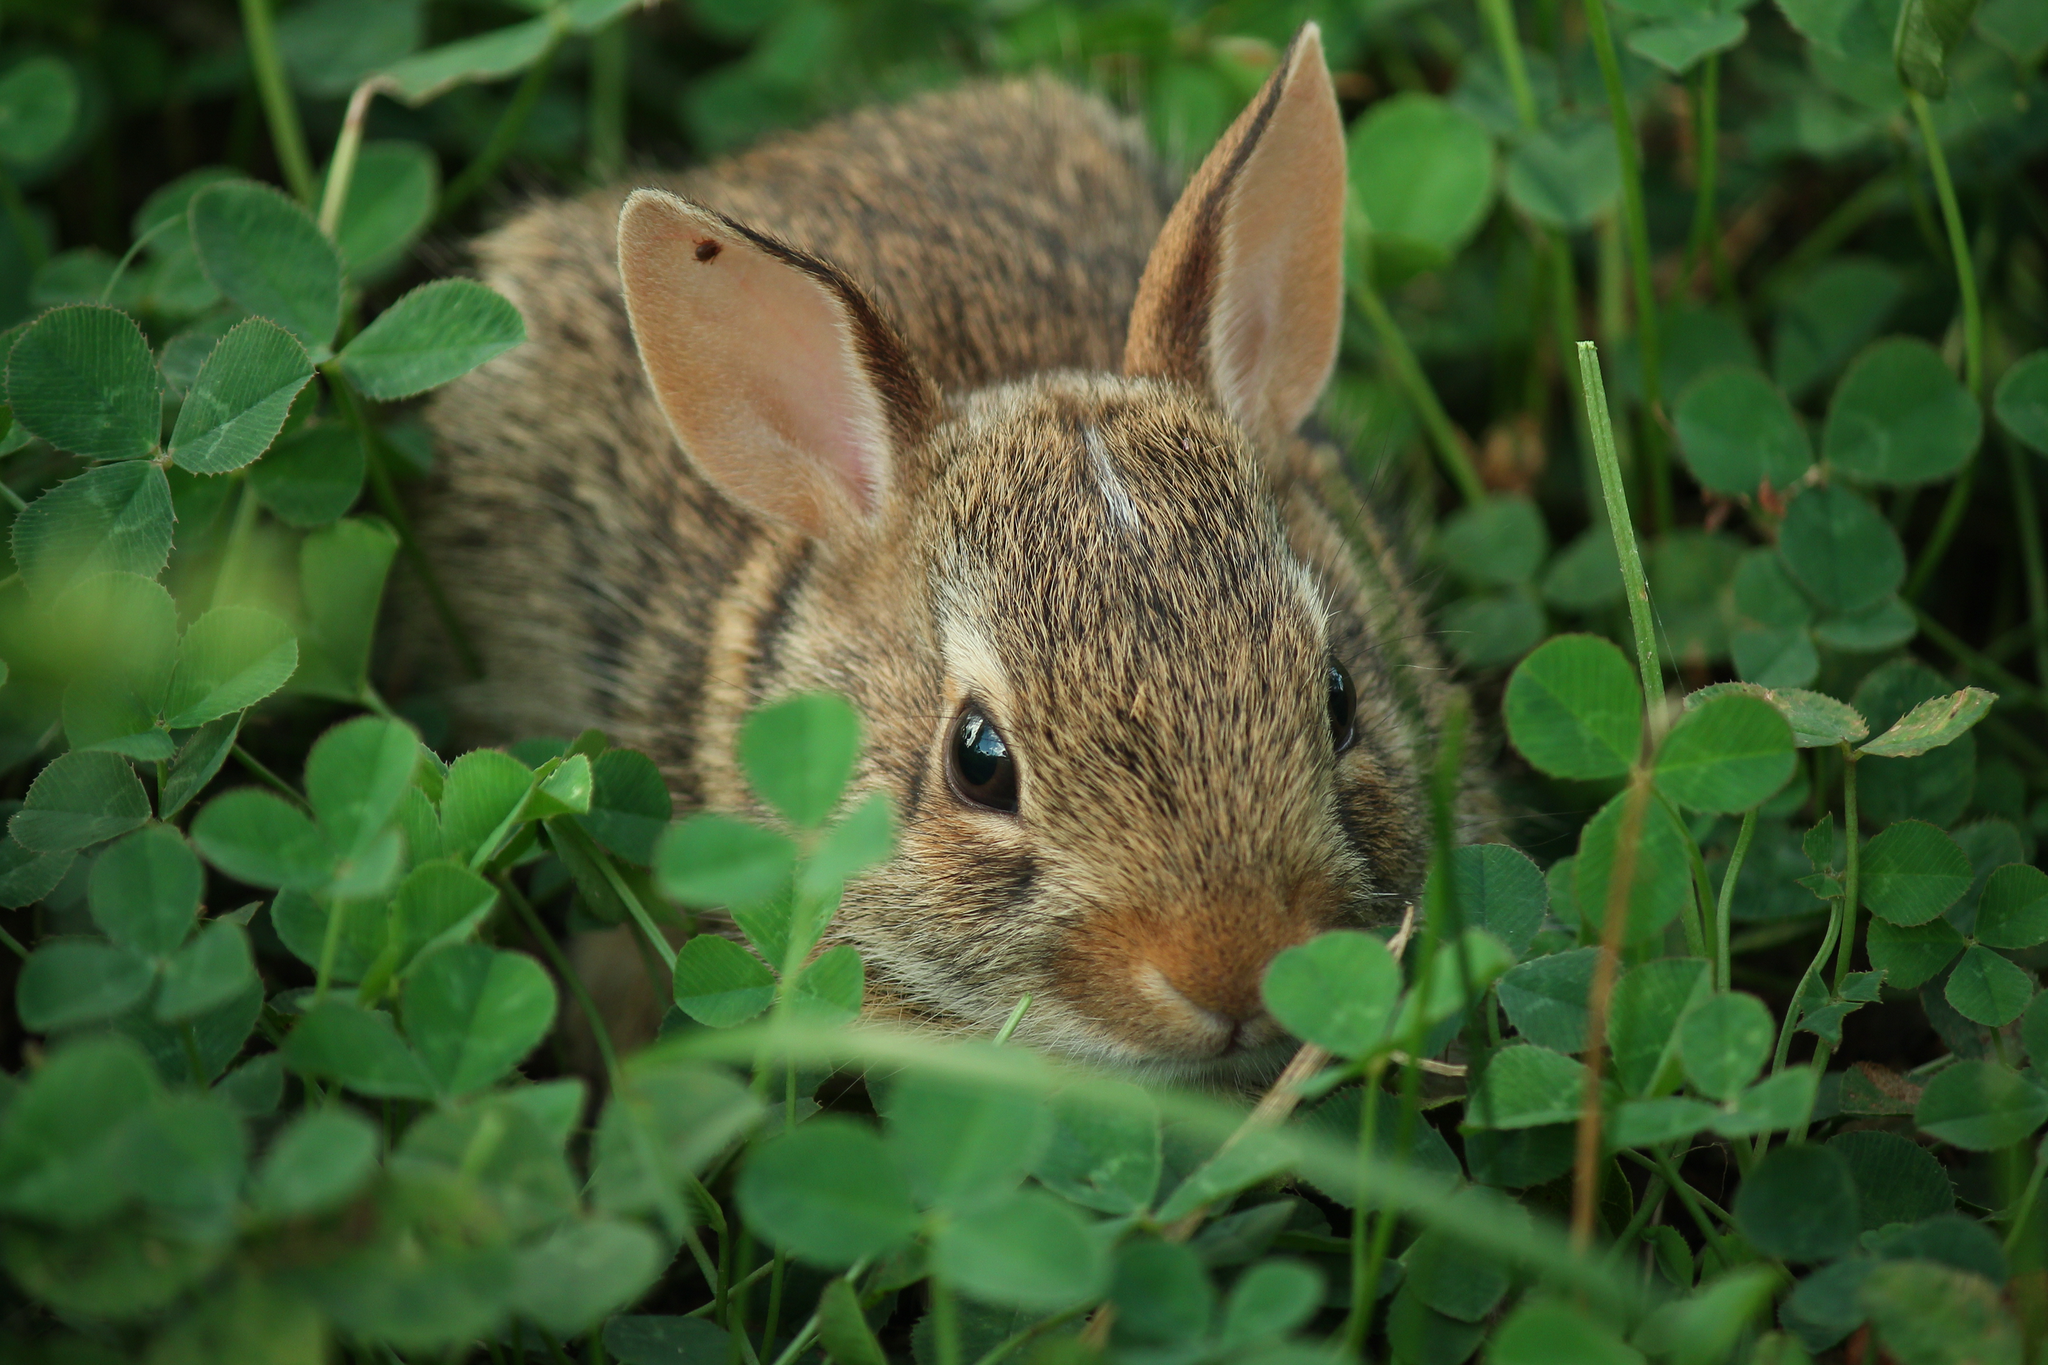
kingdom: Animalia
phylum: Chordata
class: Mammalia
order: Lagomorpha
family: Leporidae
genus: Sylvilagus
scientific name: Sylvilagus floridanus
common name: Eastern cottontail
